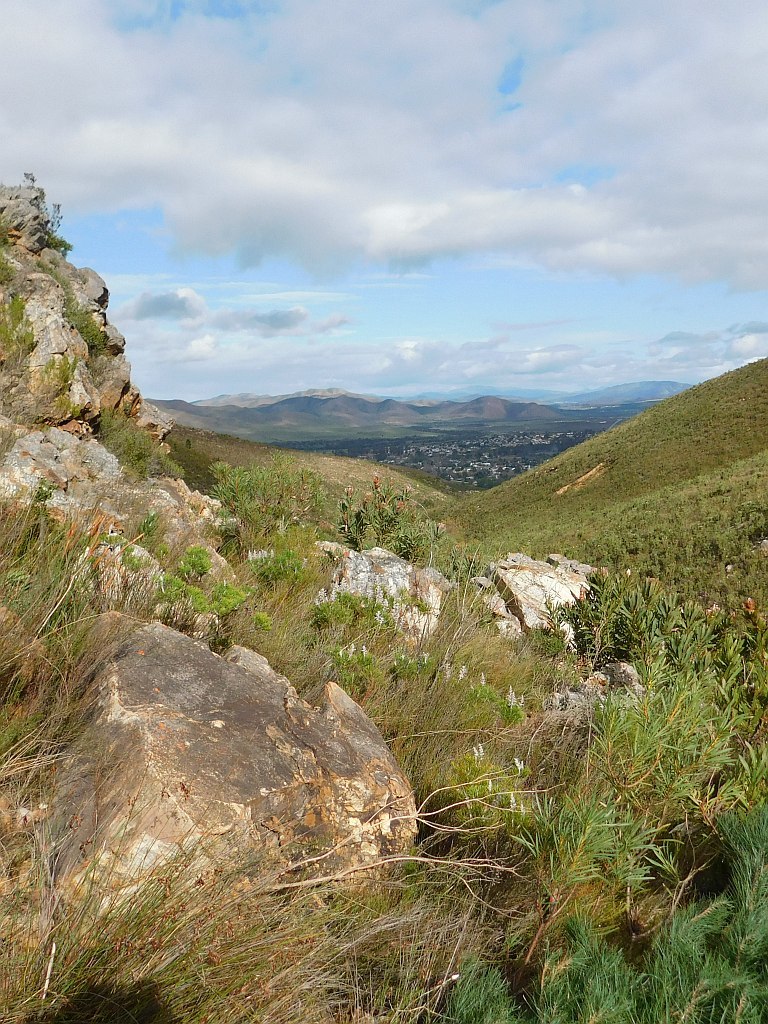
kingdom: Plantae
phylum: Tracheophyta
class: Pinopsida
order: Pinales
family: Pinaceae
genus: Pinus
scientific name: Pinus pinaster
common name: Maritime pine
